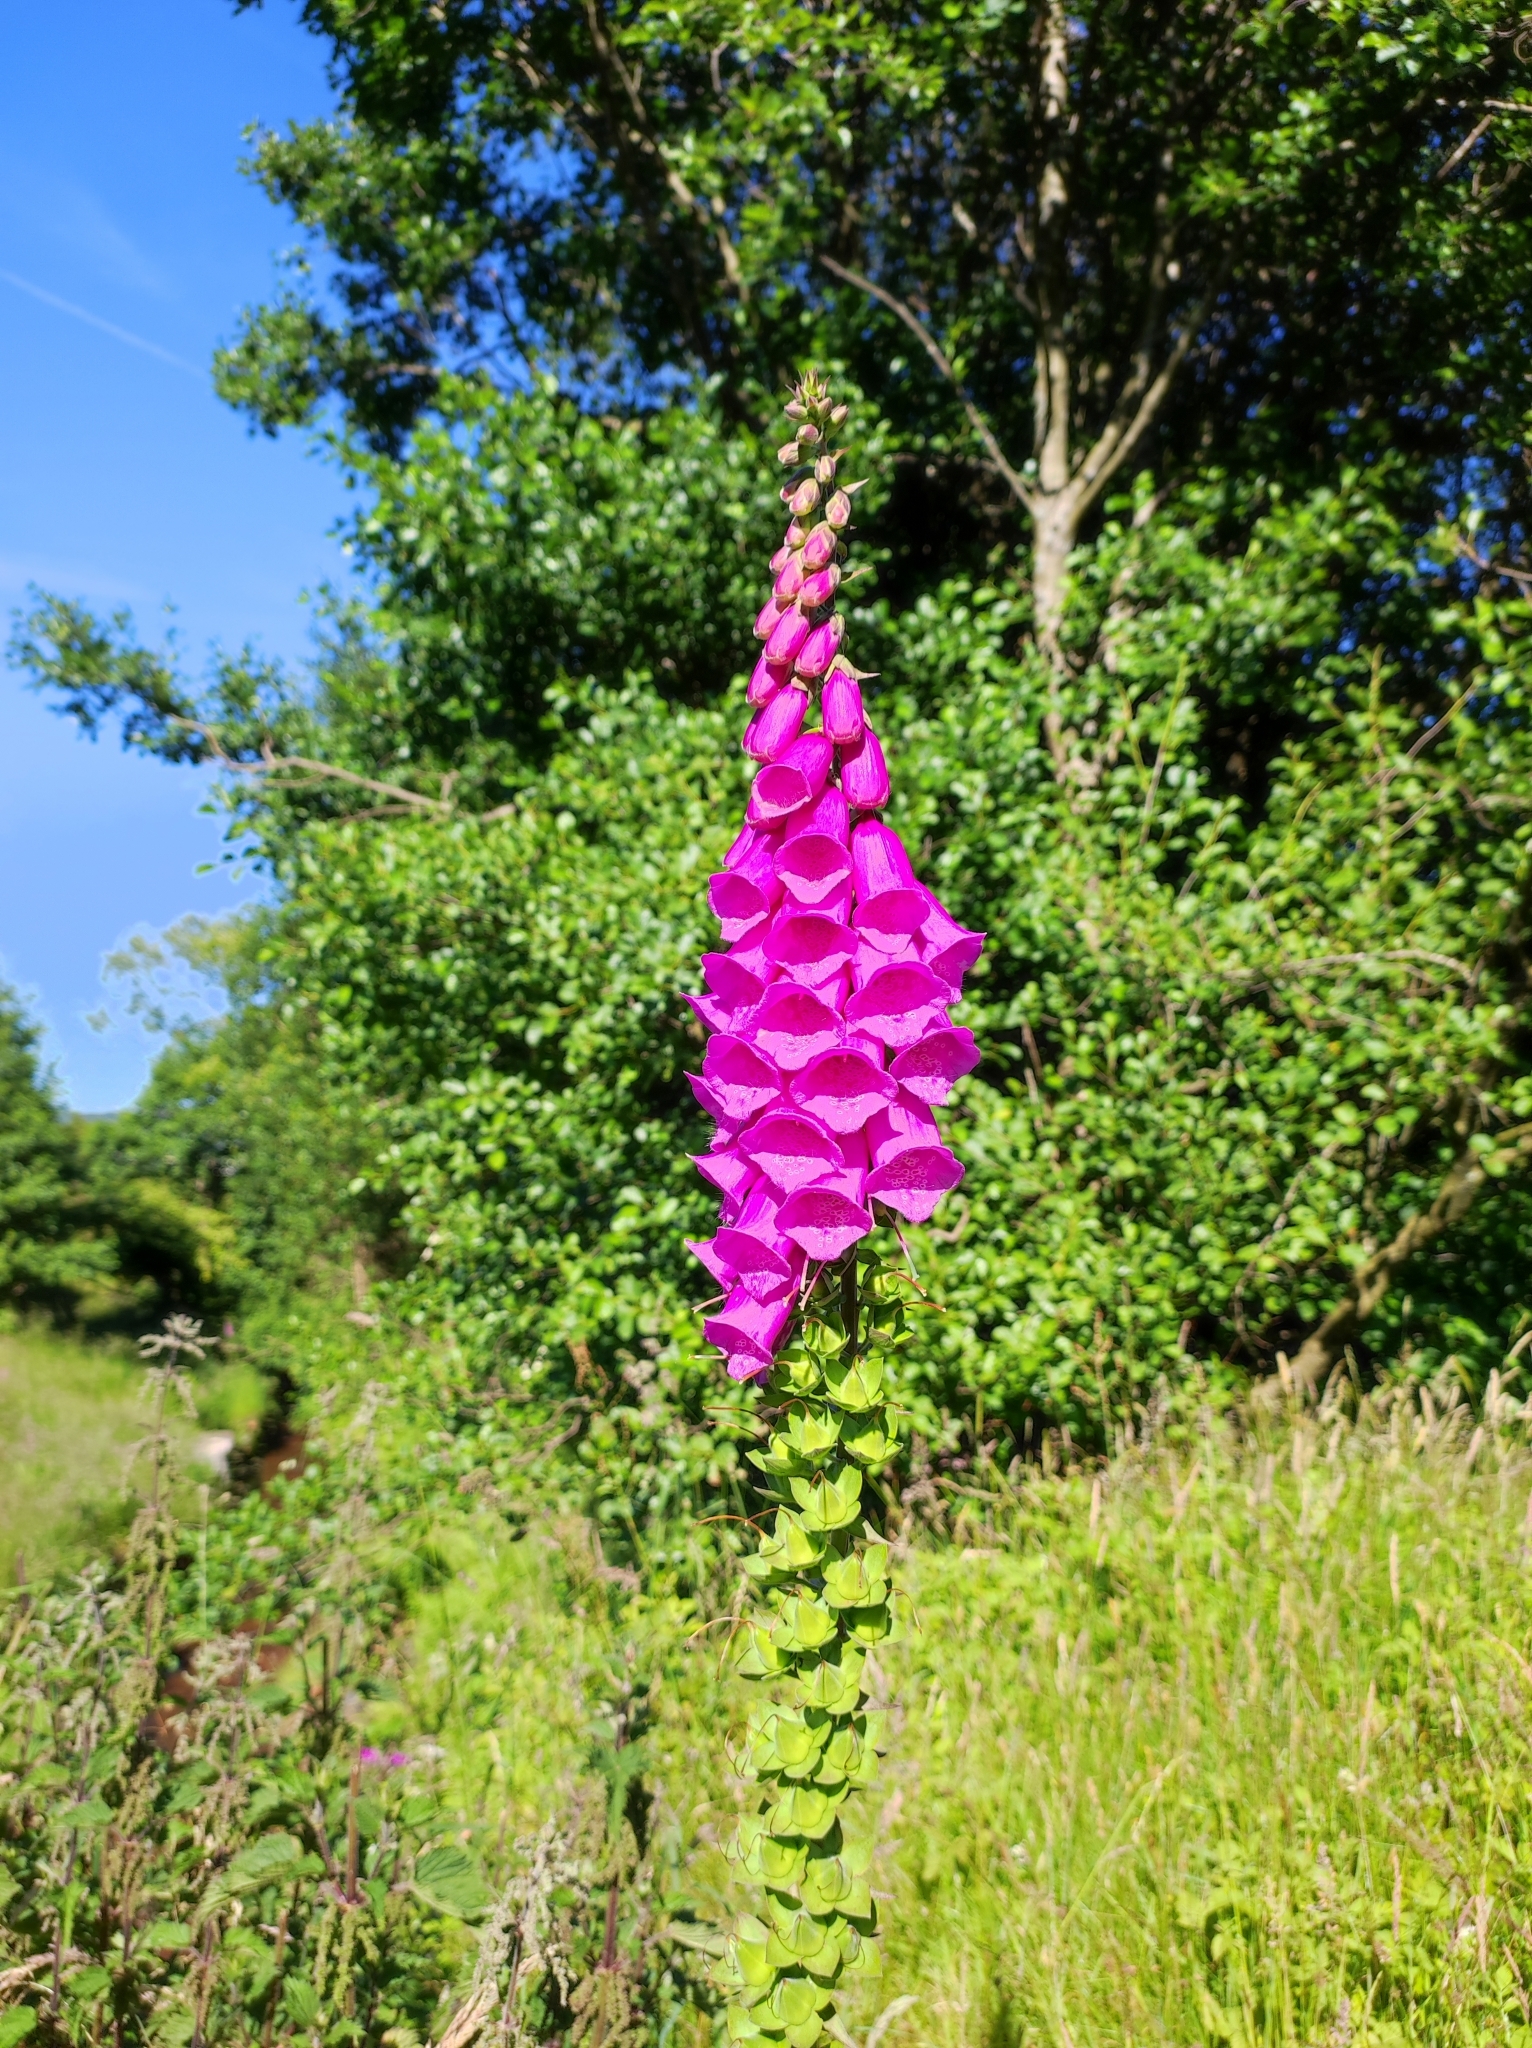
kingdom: Plantae
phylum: Tracheophyta
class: Magnoliopsida
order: Lamiales
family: Plantaginaceae
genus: Digitalis
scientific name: Digitalis purpurea
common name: Foxglove
